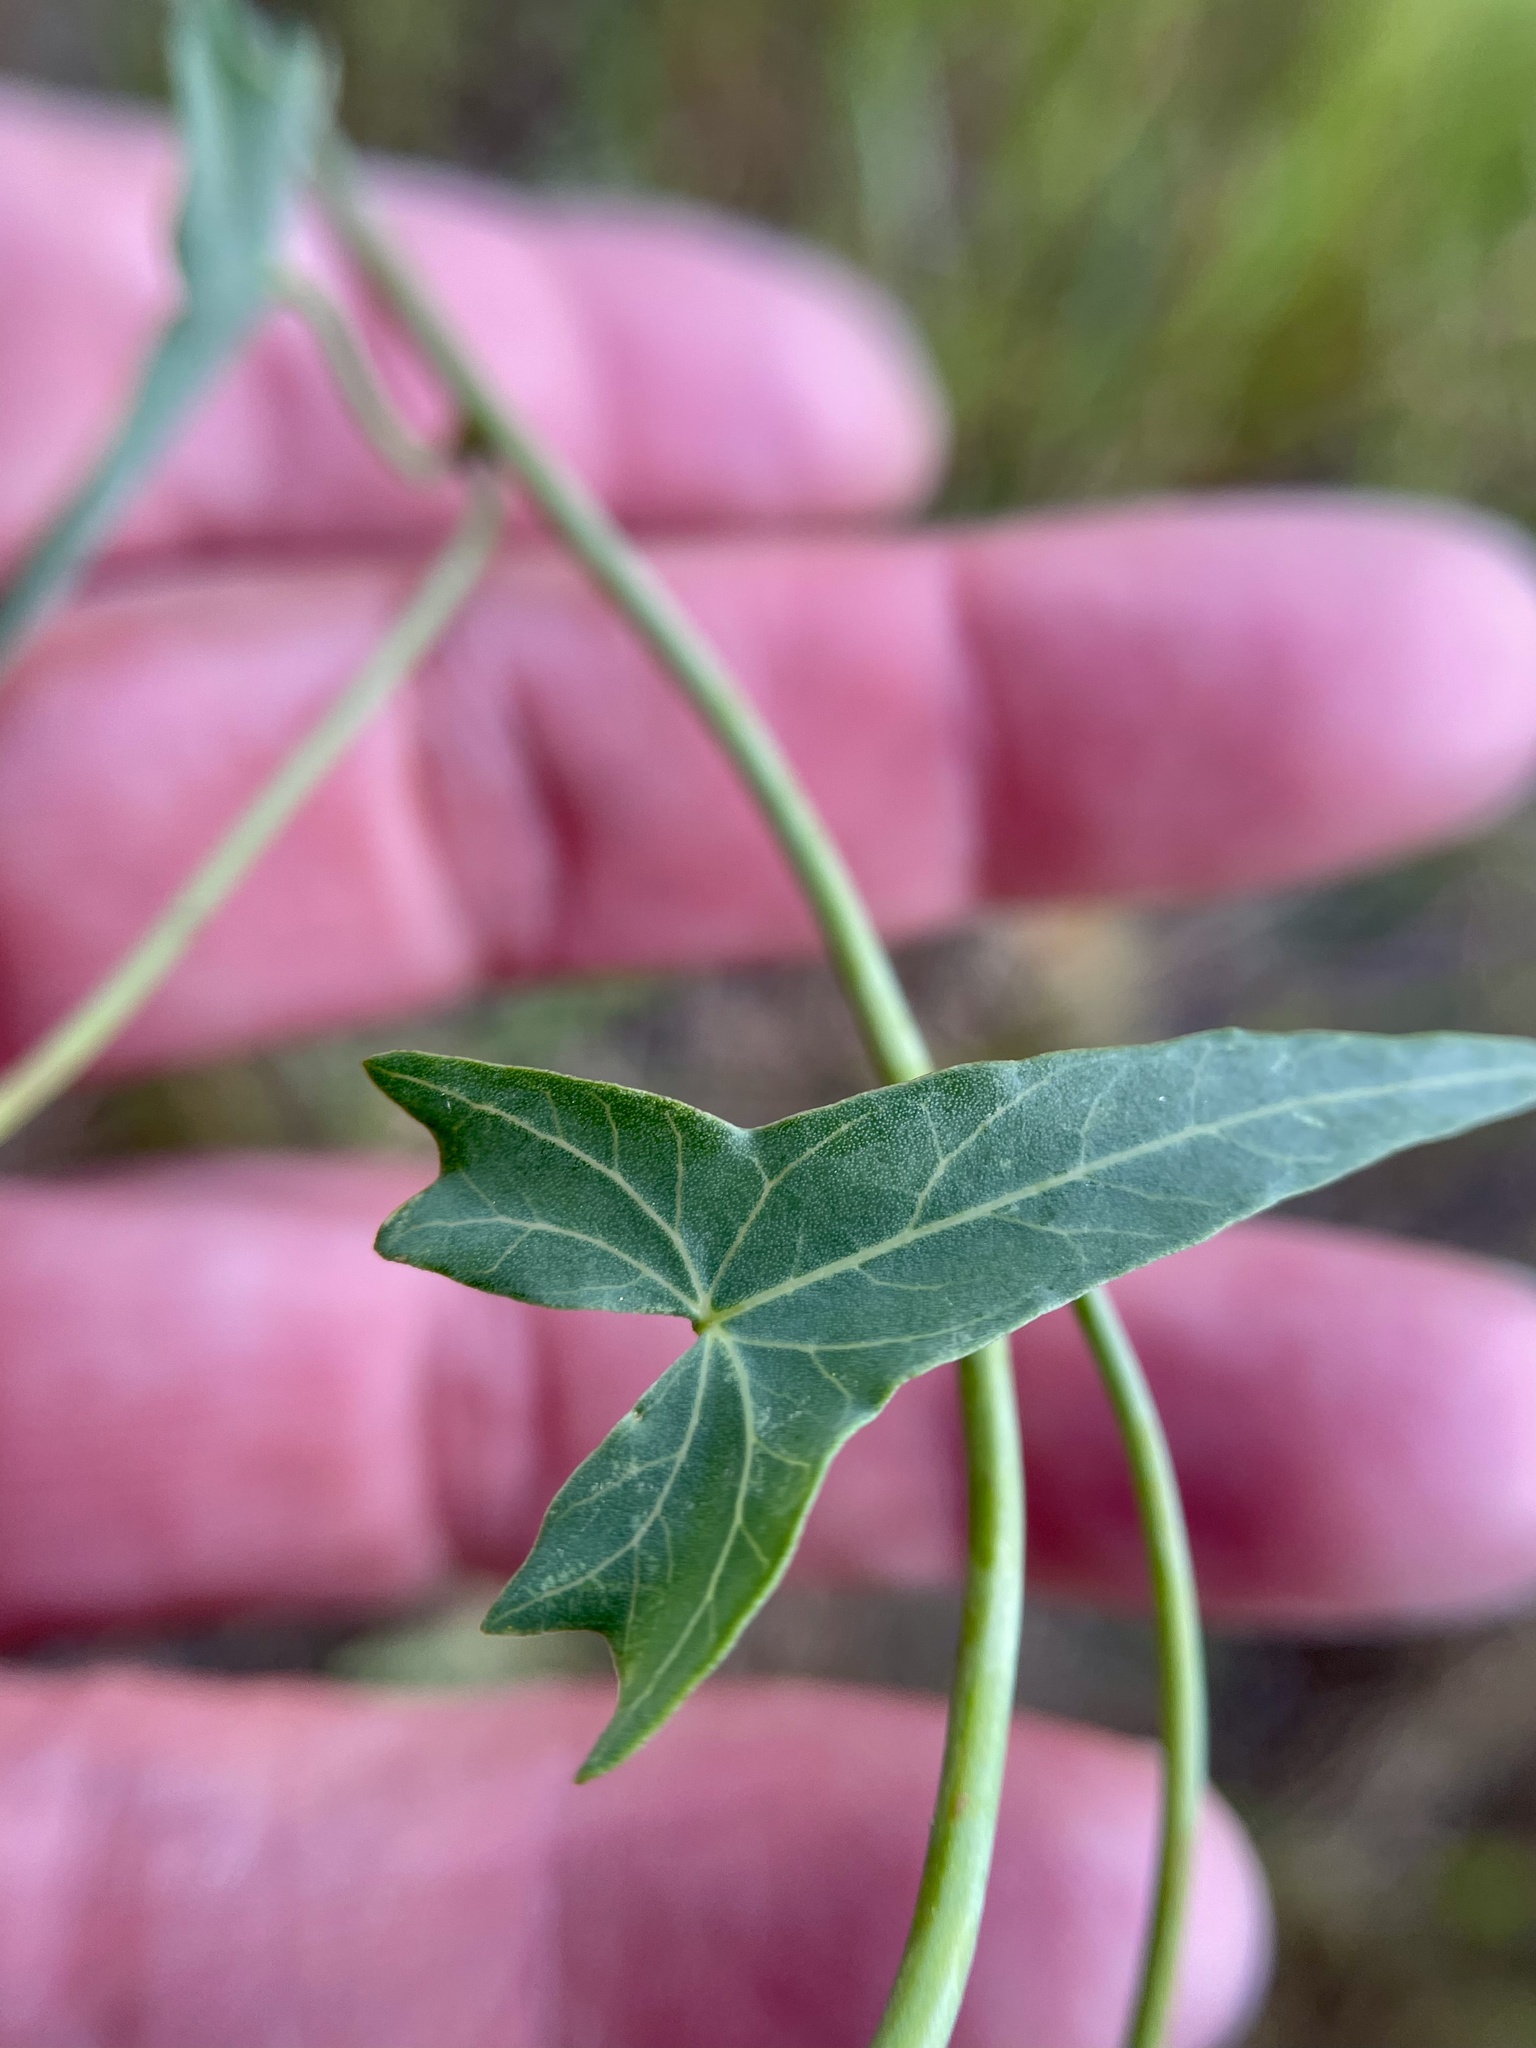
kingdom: Plantae
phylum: Tracheophyta
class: Magnoliopsida
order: Solanales
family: Convolvulaceae
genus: Calystegia
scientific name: Calystegia purpurata
